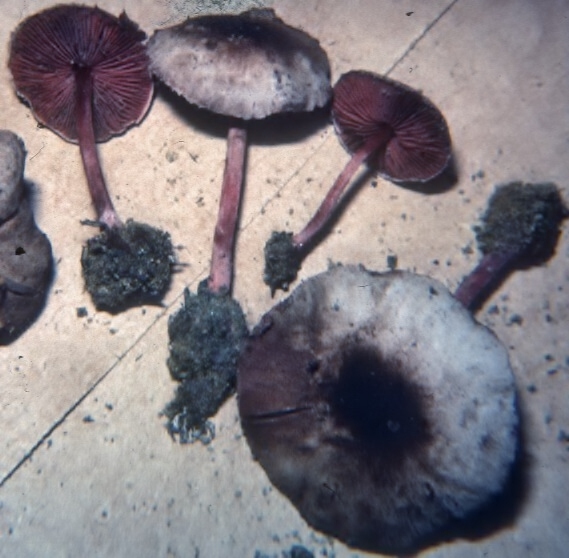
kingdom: Fungi
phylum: Basidiomycota
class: Agaricomycetes
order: Agaricales
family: Agaricaceae
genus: Melanophyllum
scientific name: Melanophyllum haematospermum
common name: Redspored dapperling
